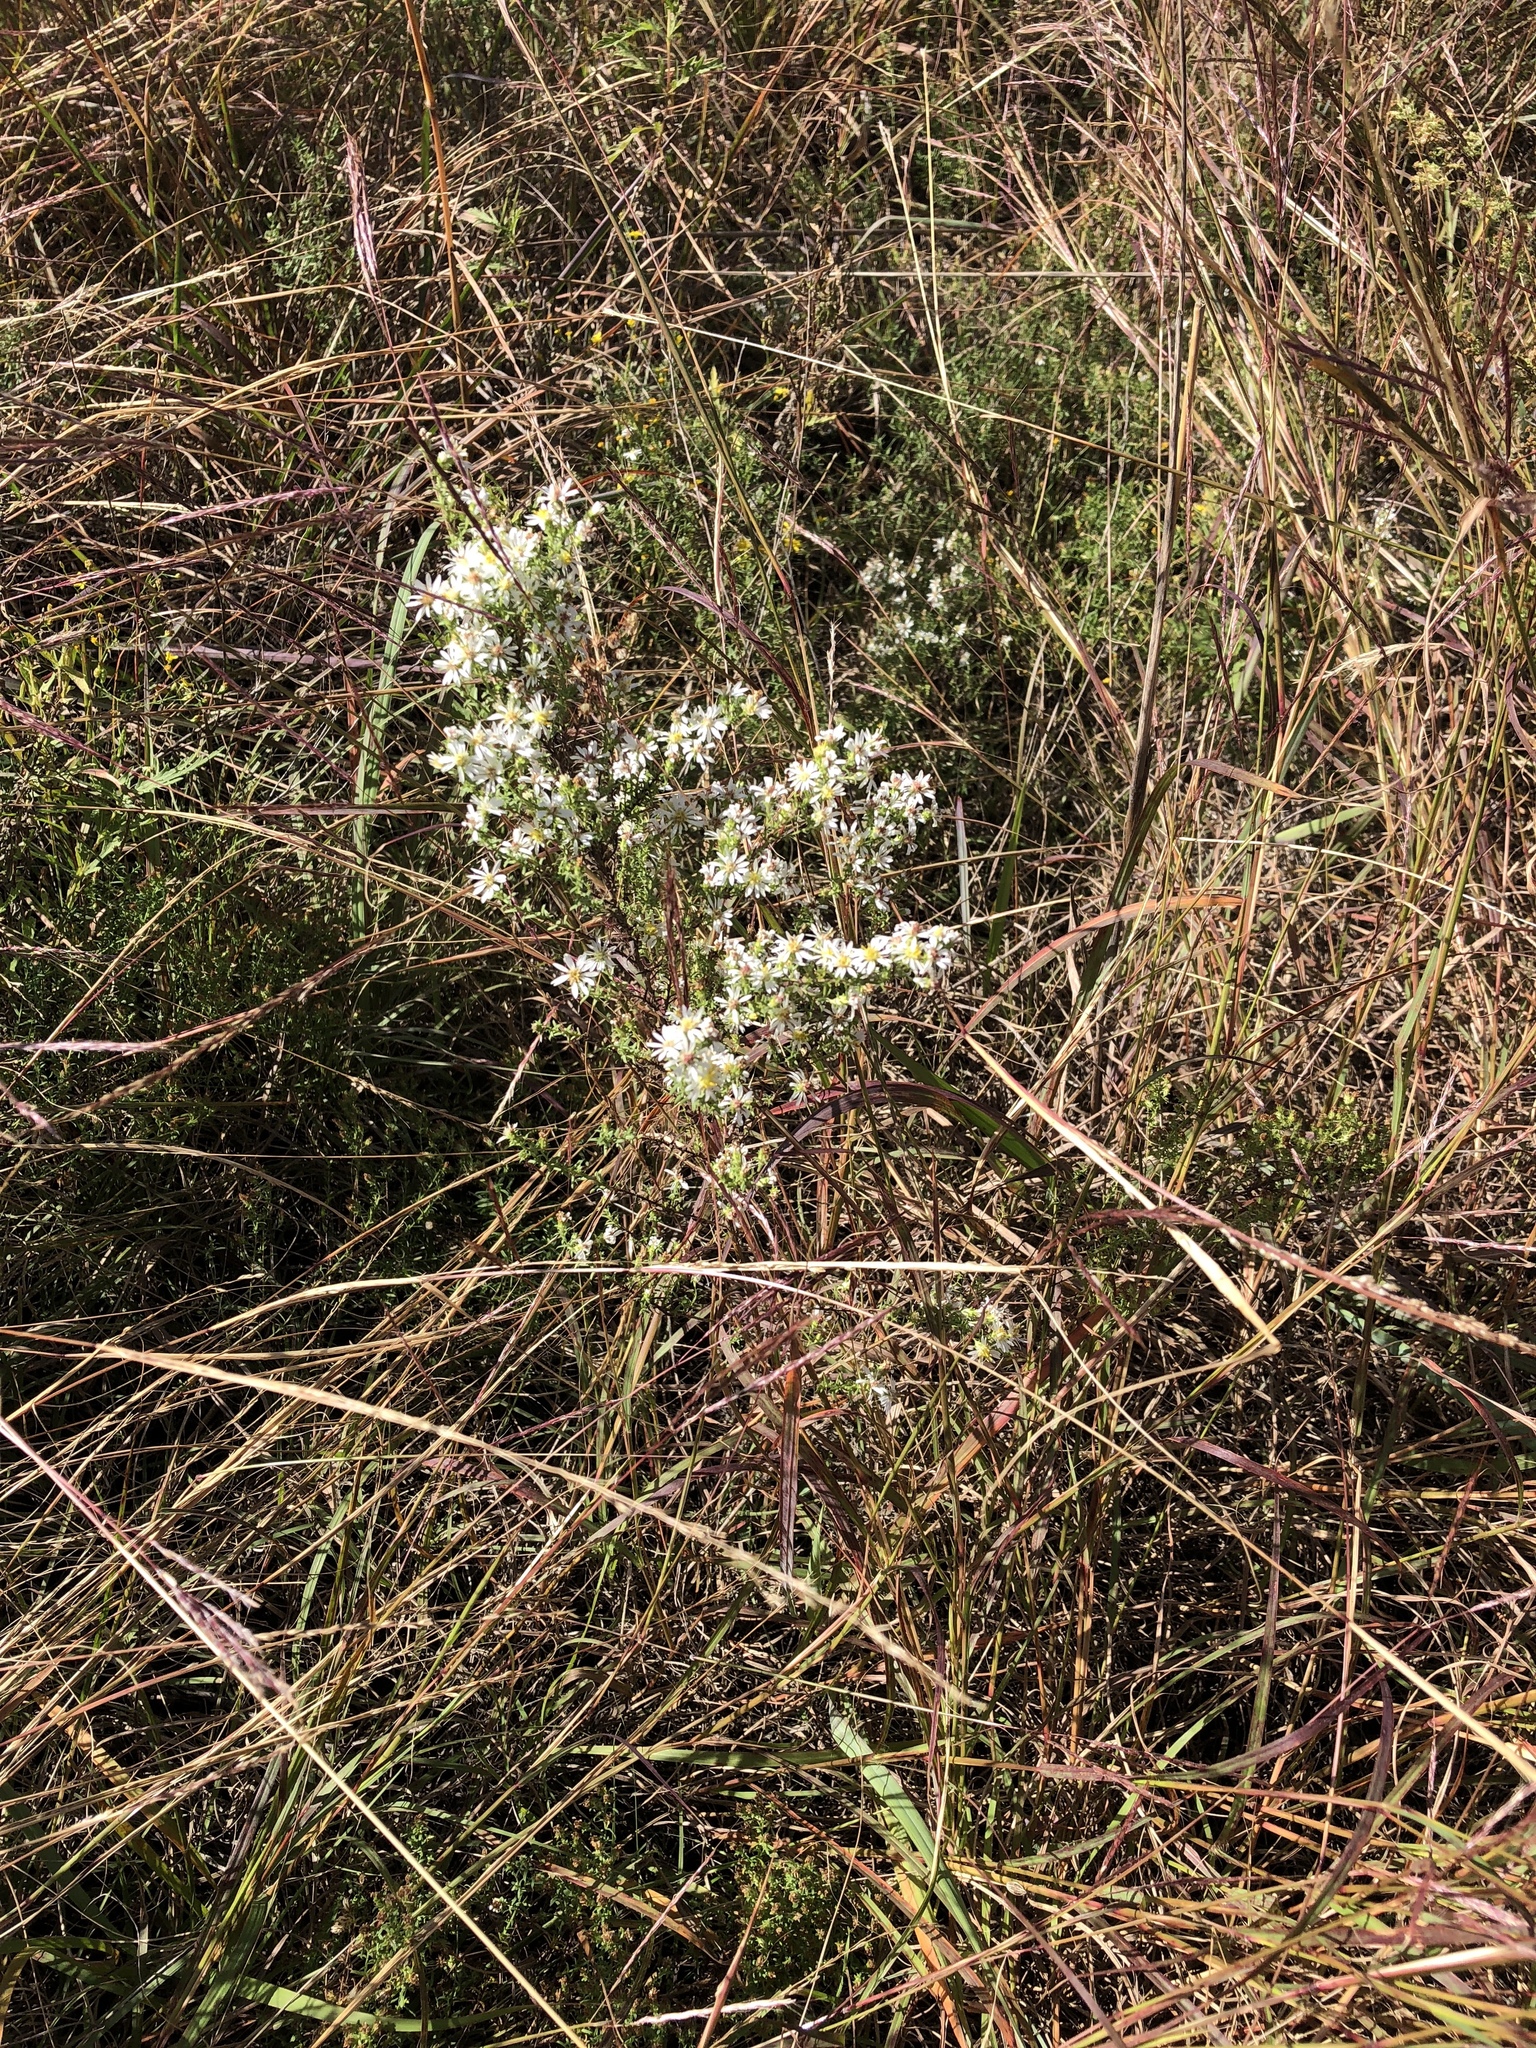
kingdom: Plantae
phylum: Tracheophyta
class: Magnoliopsida
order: Asterales
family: Asteraceae
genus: Symphyotrichum
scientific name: Symphyotrichum ericoides
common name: Heath aster
